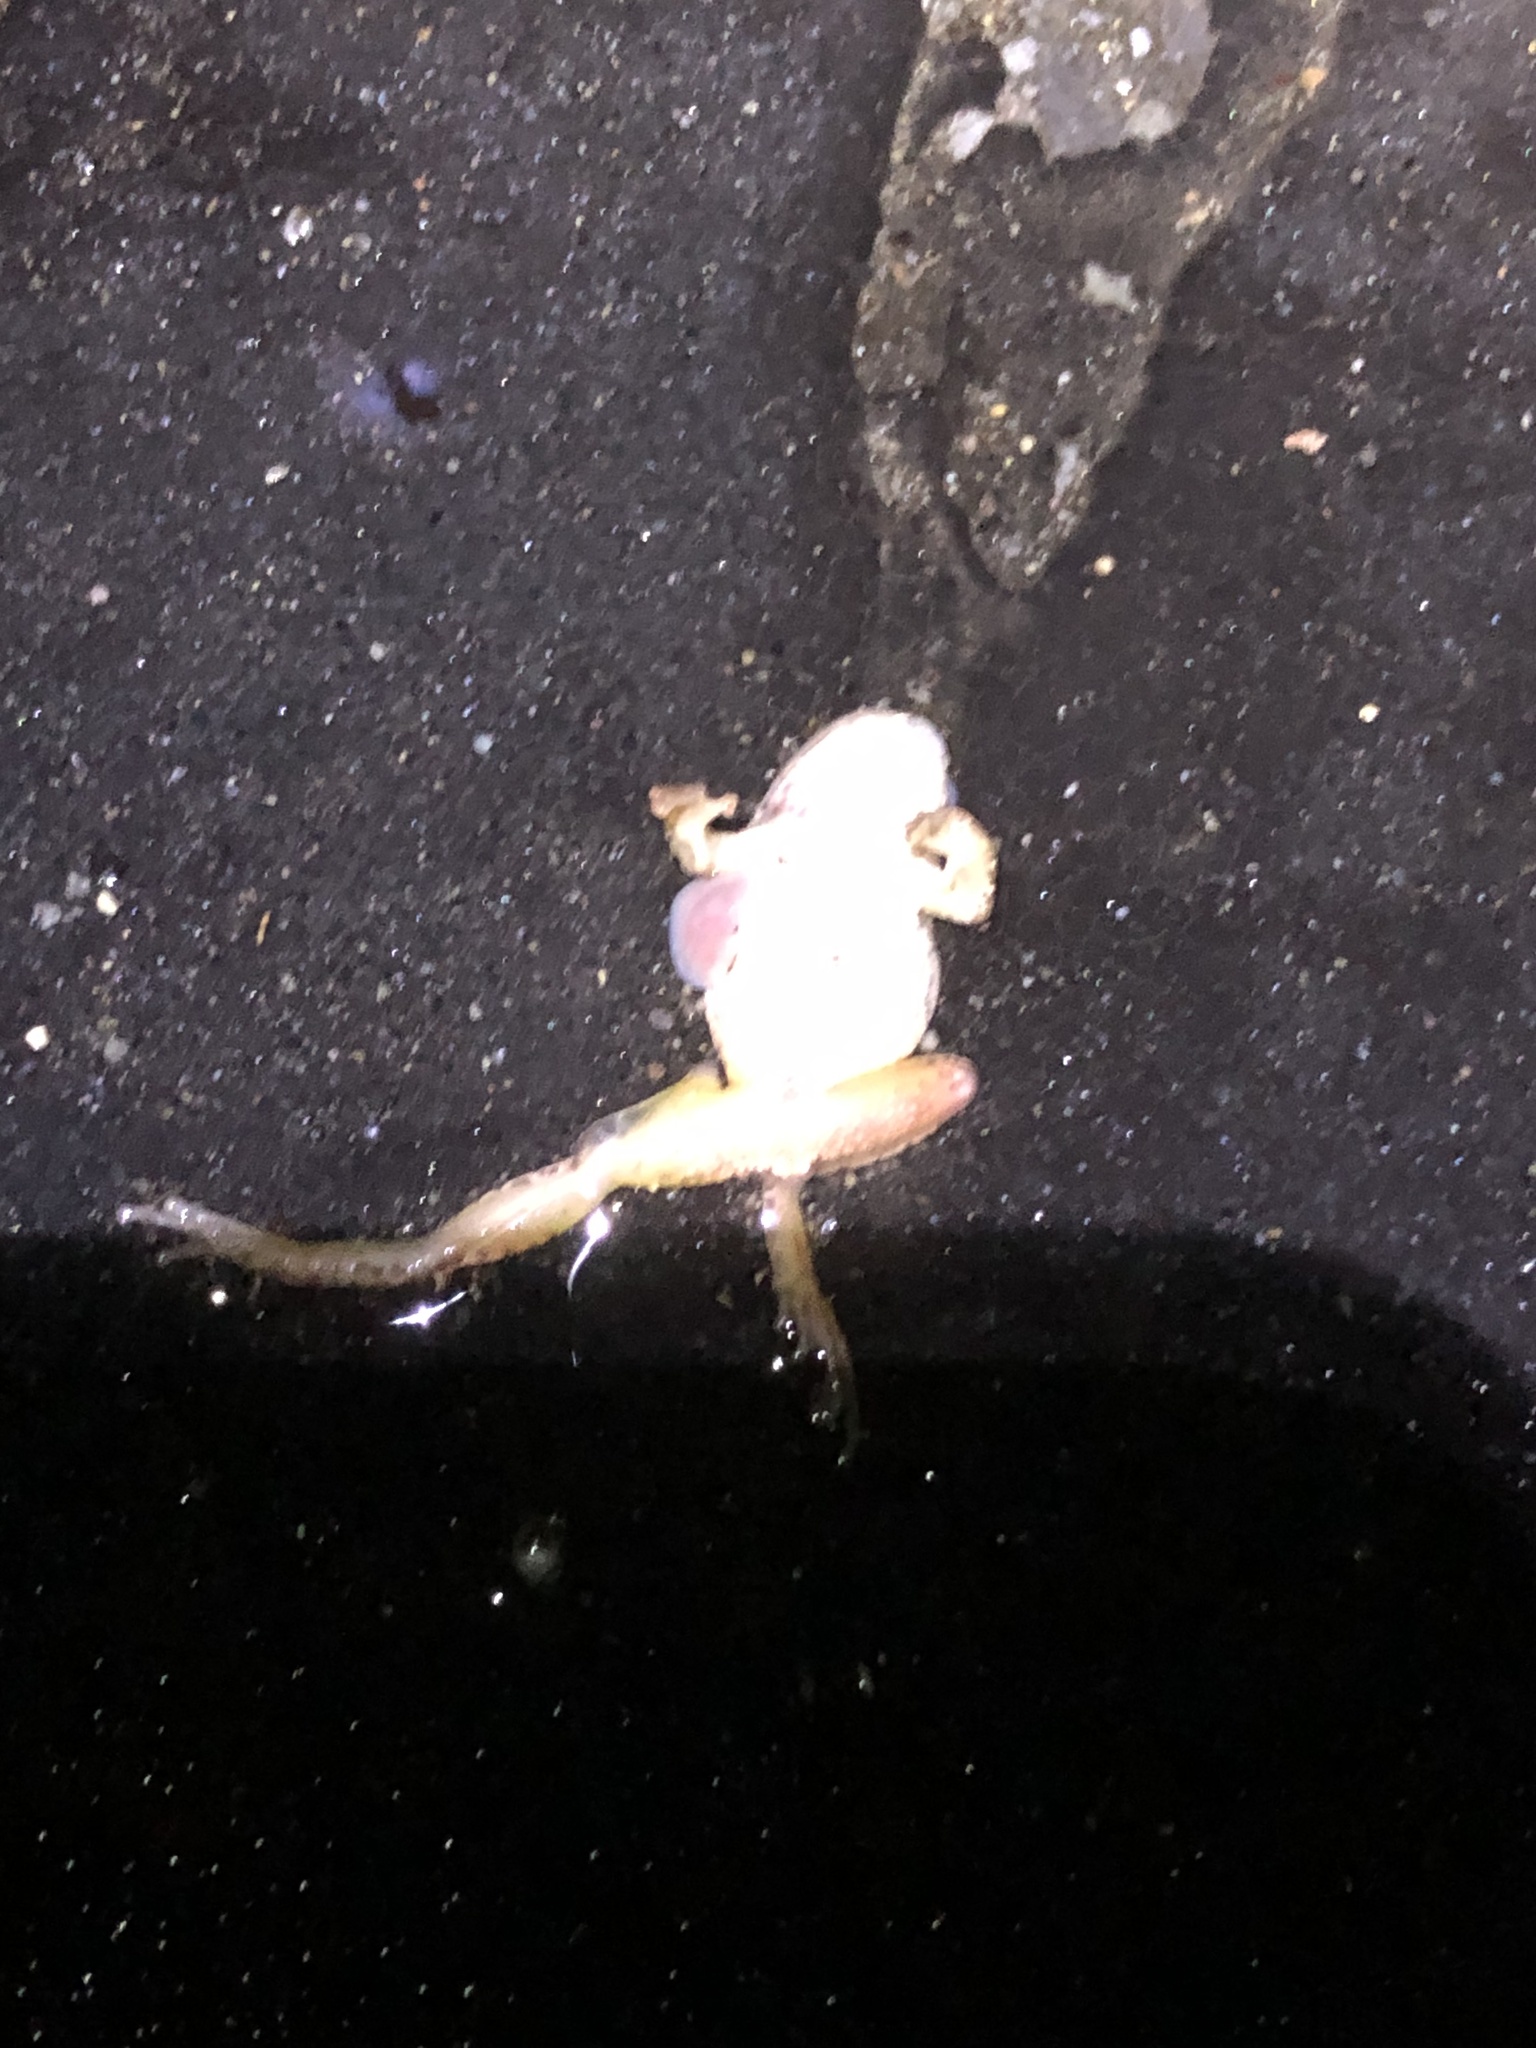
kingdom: Animalia
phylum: Chordata
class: Amphibia
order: Anura
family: Hylidae
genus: Pseudacris
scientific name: Pseudacris crucifer
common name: Spring peeper
